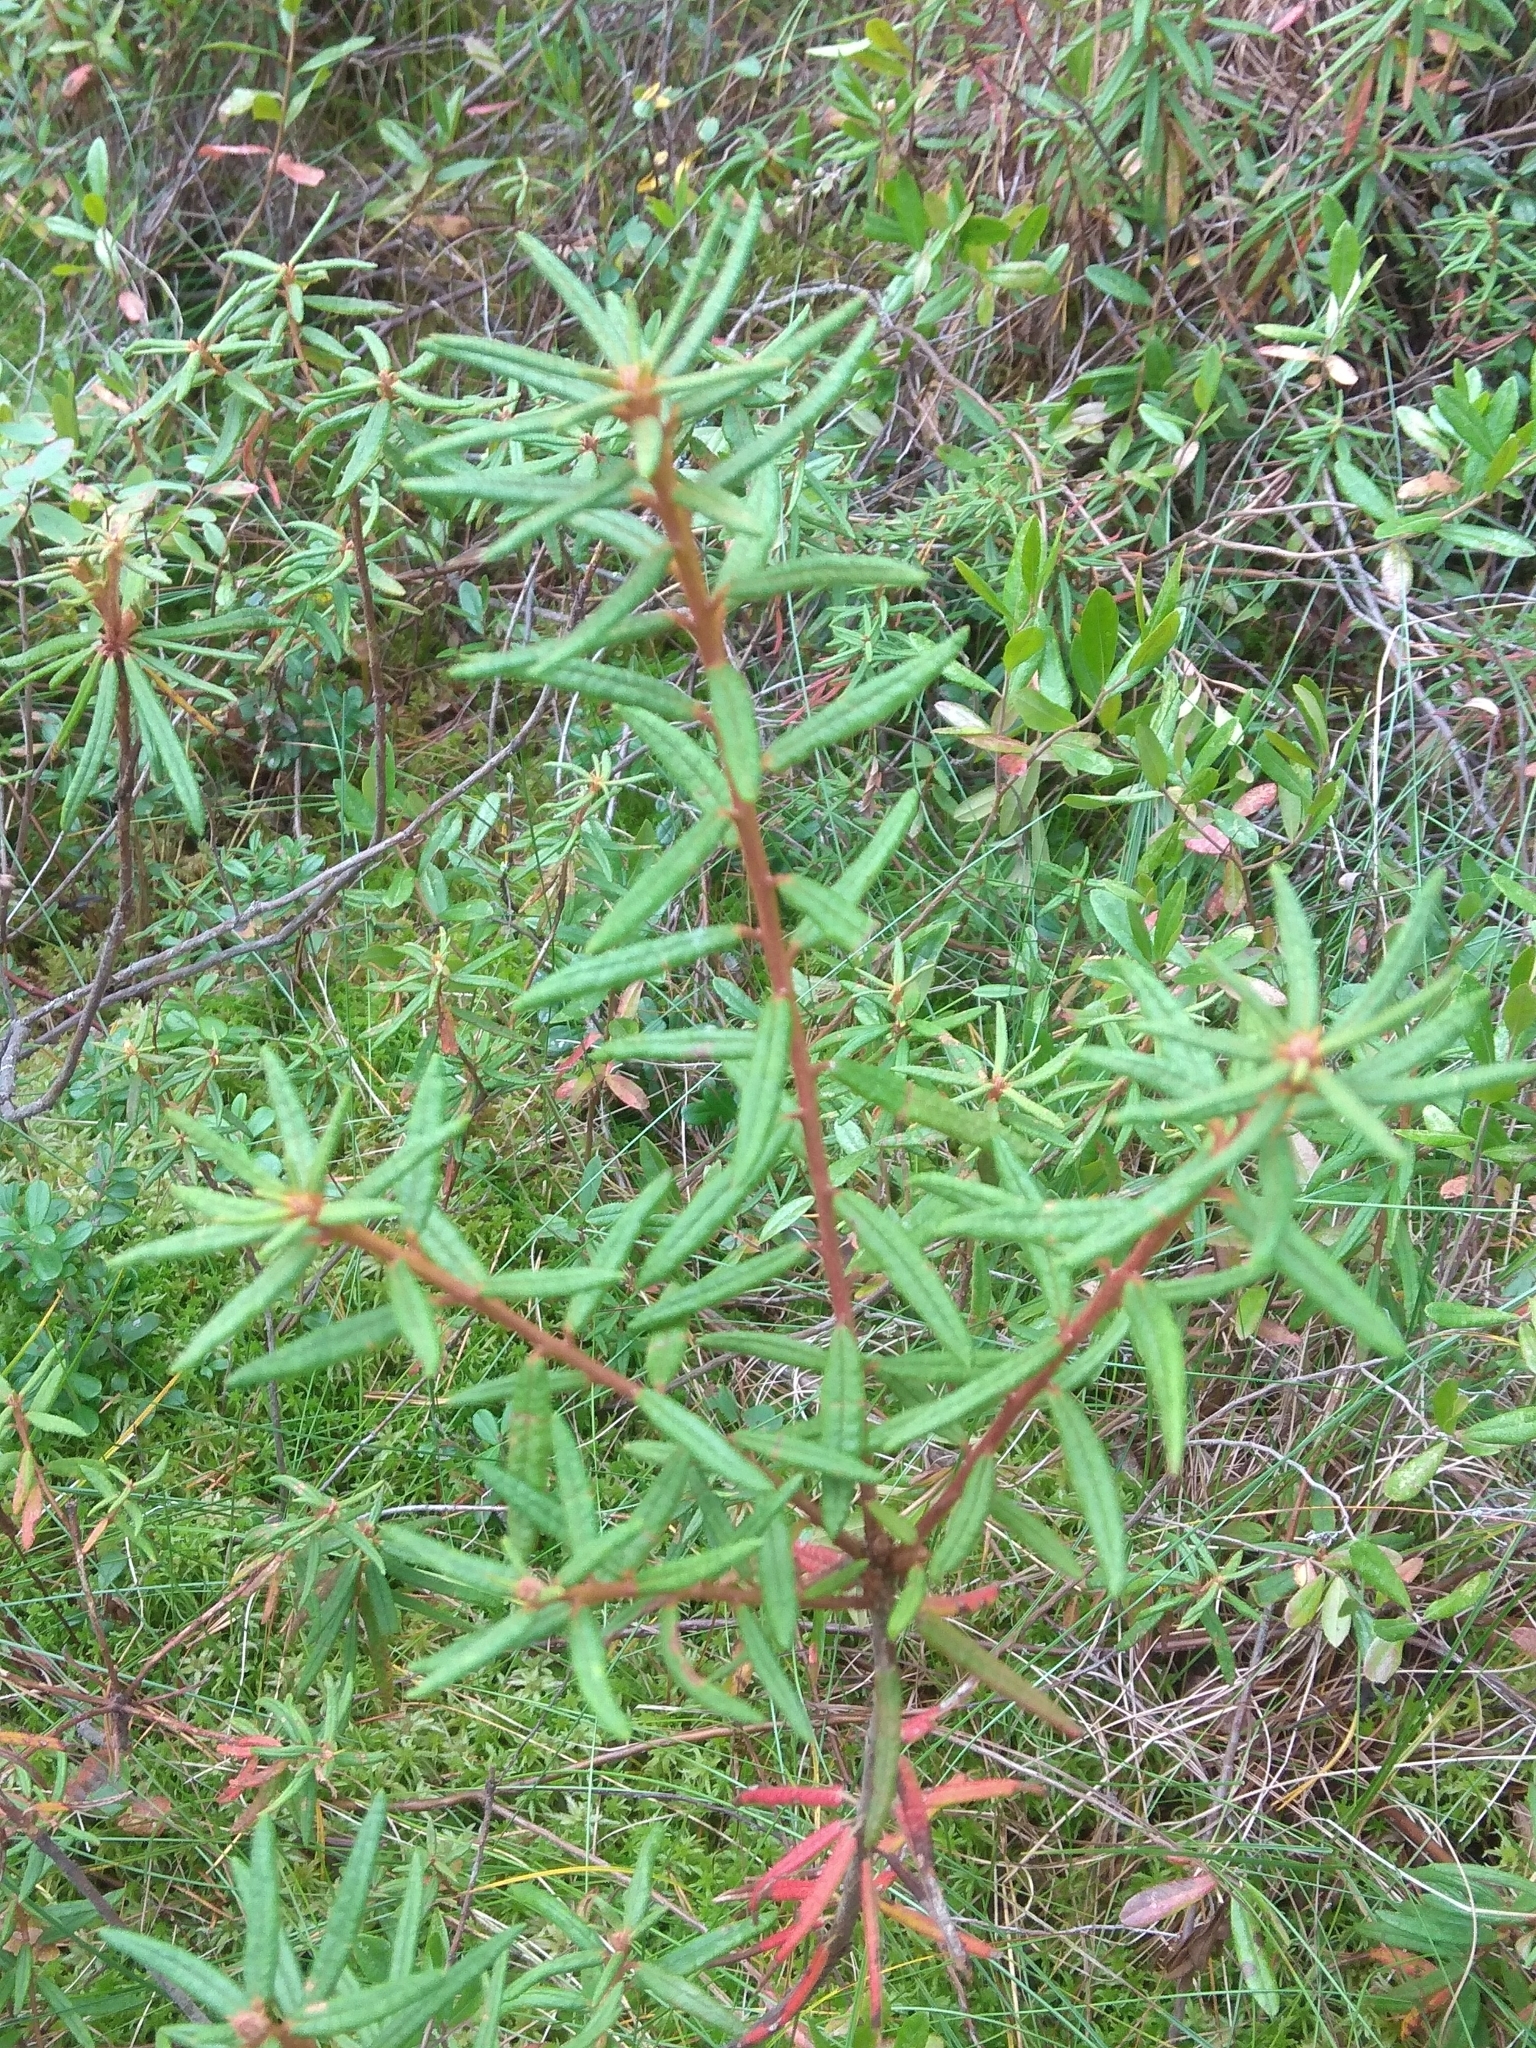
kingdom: Plantae
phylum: Tracheophyta
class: Magnoliopsida
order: Ericales
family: Ericaceae
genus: Rhododendron
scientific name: Rhododendron tomentosum
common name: Marsh labrador tea
